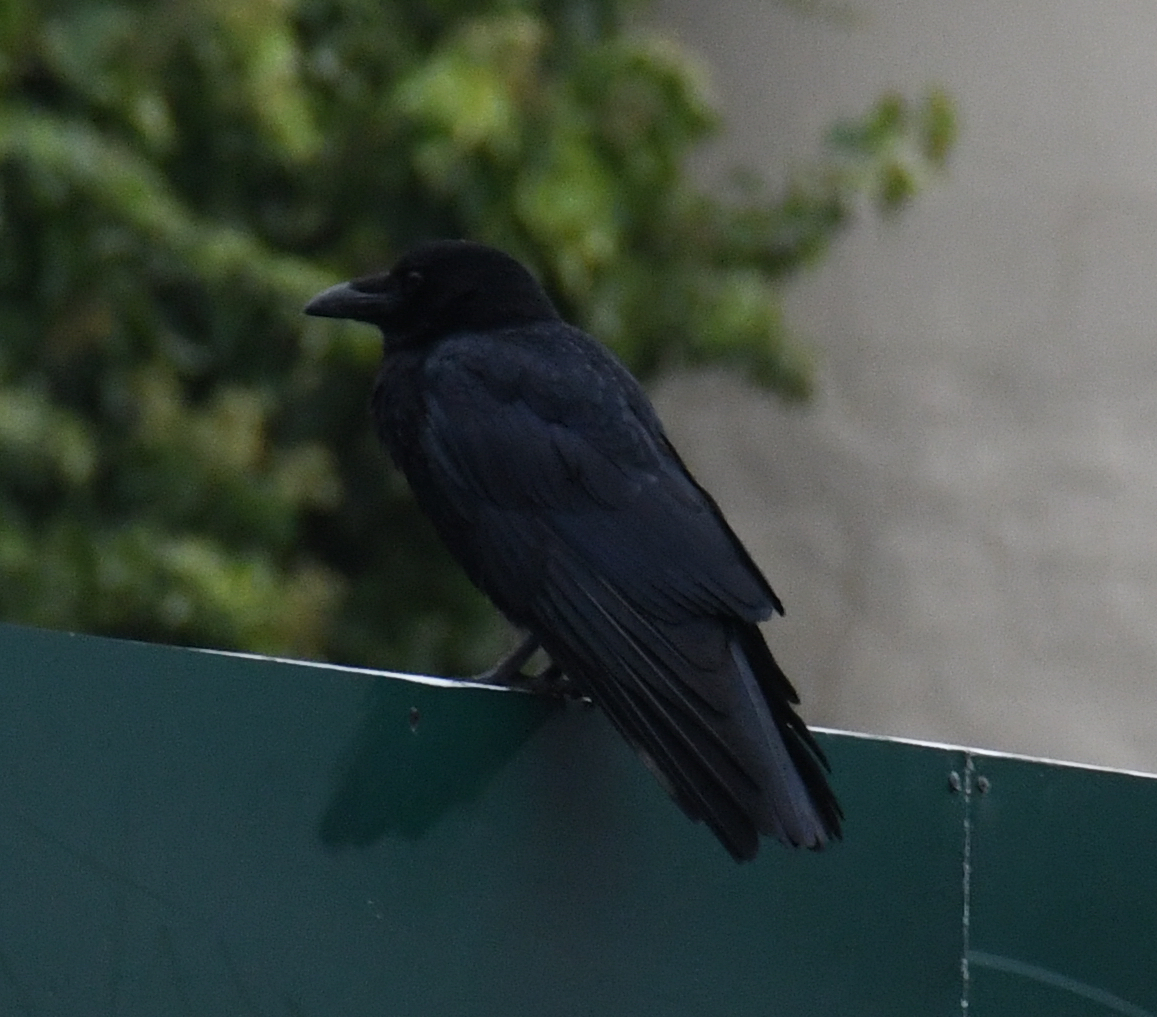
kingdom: Animalia
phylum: Chordata
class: Aves
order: Passeriformes
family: Corvidae
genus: Corvus
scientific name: Corvus corone
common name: Carrion crow
